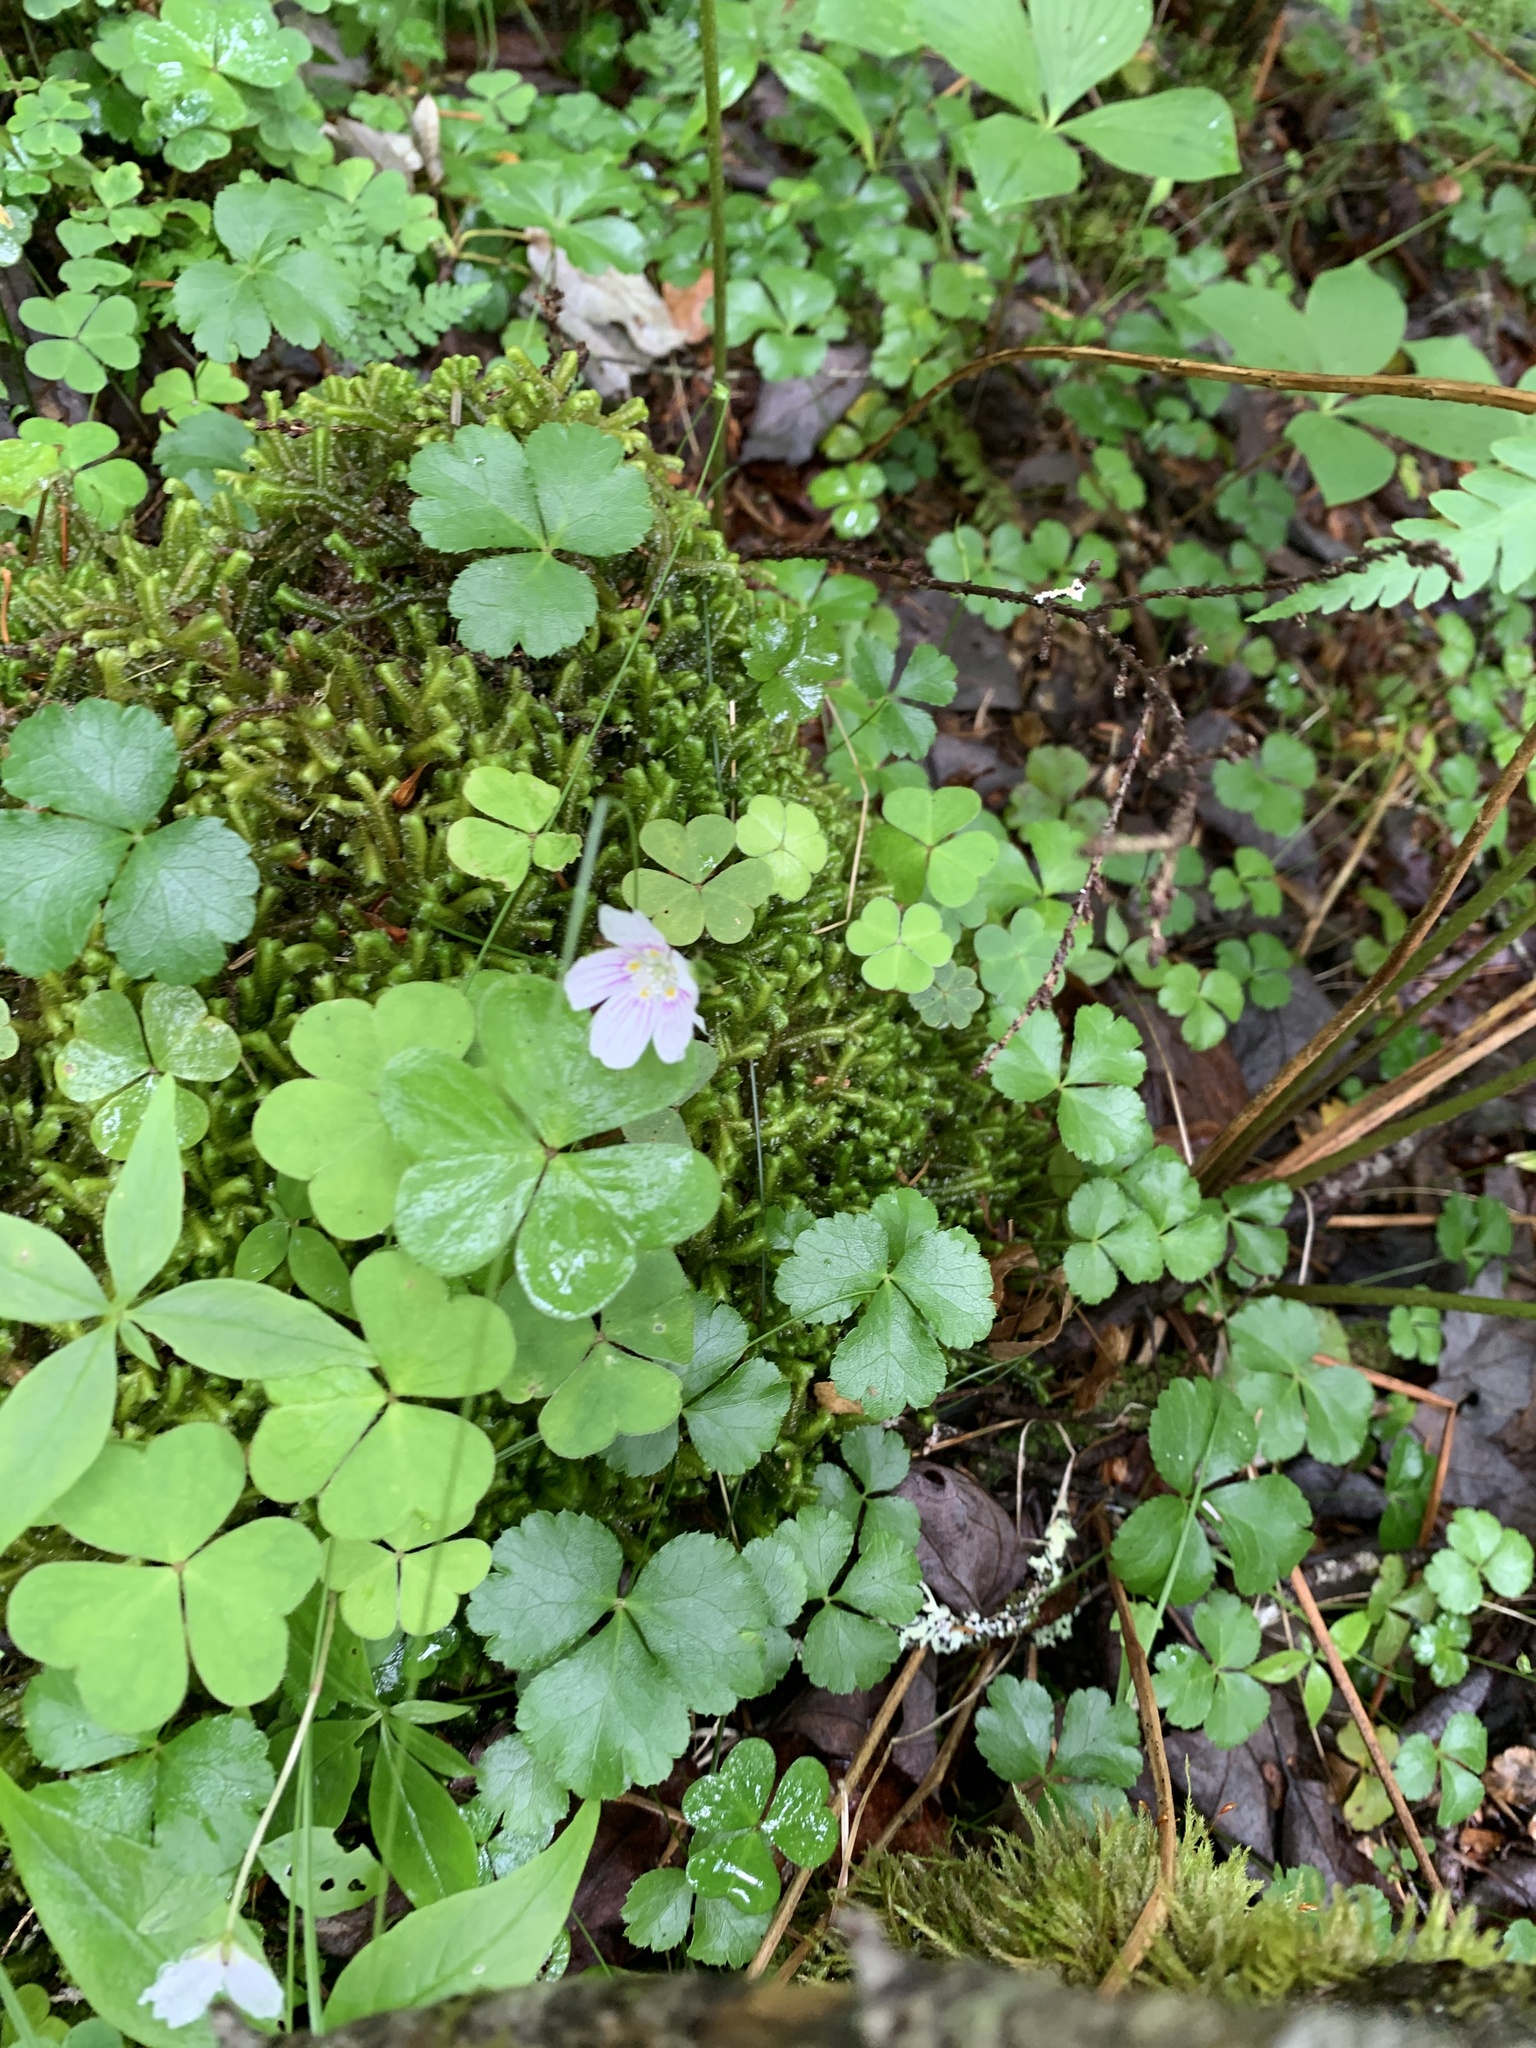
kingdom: Plantae
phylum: Tracheophyta
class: Magnoliopsida
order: Oxalidales
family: Oxalidaceae
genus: Oxalis
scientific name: Oxalis montana
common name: American wood-sorrel
